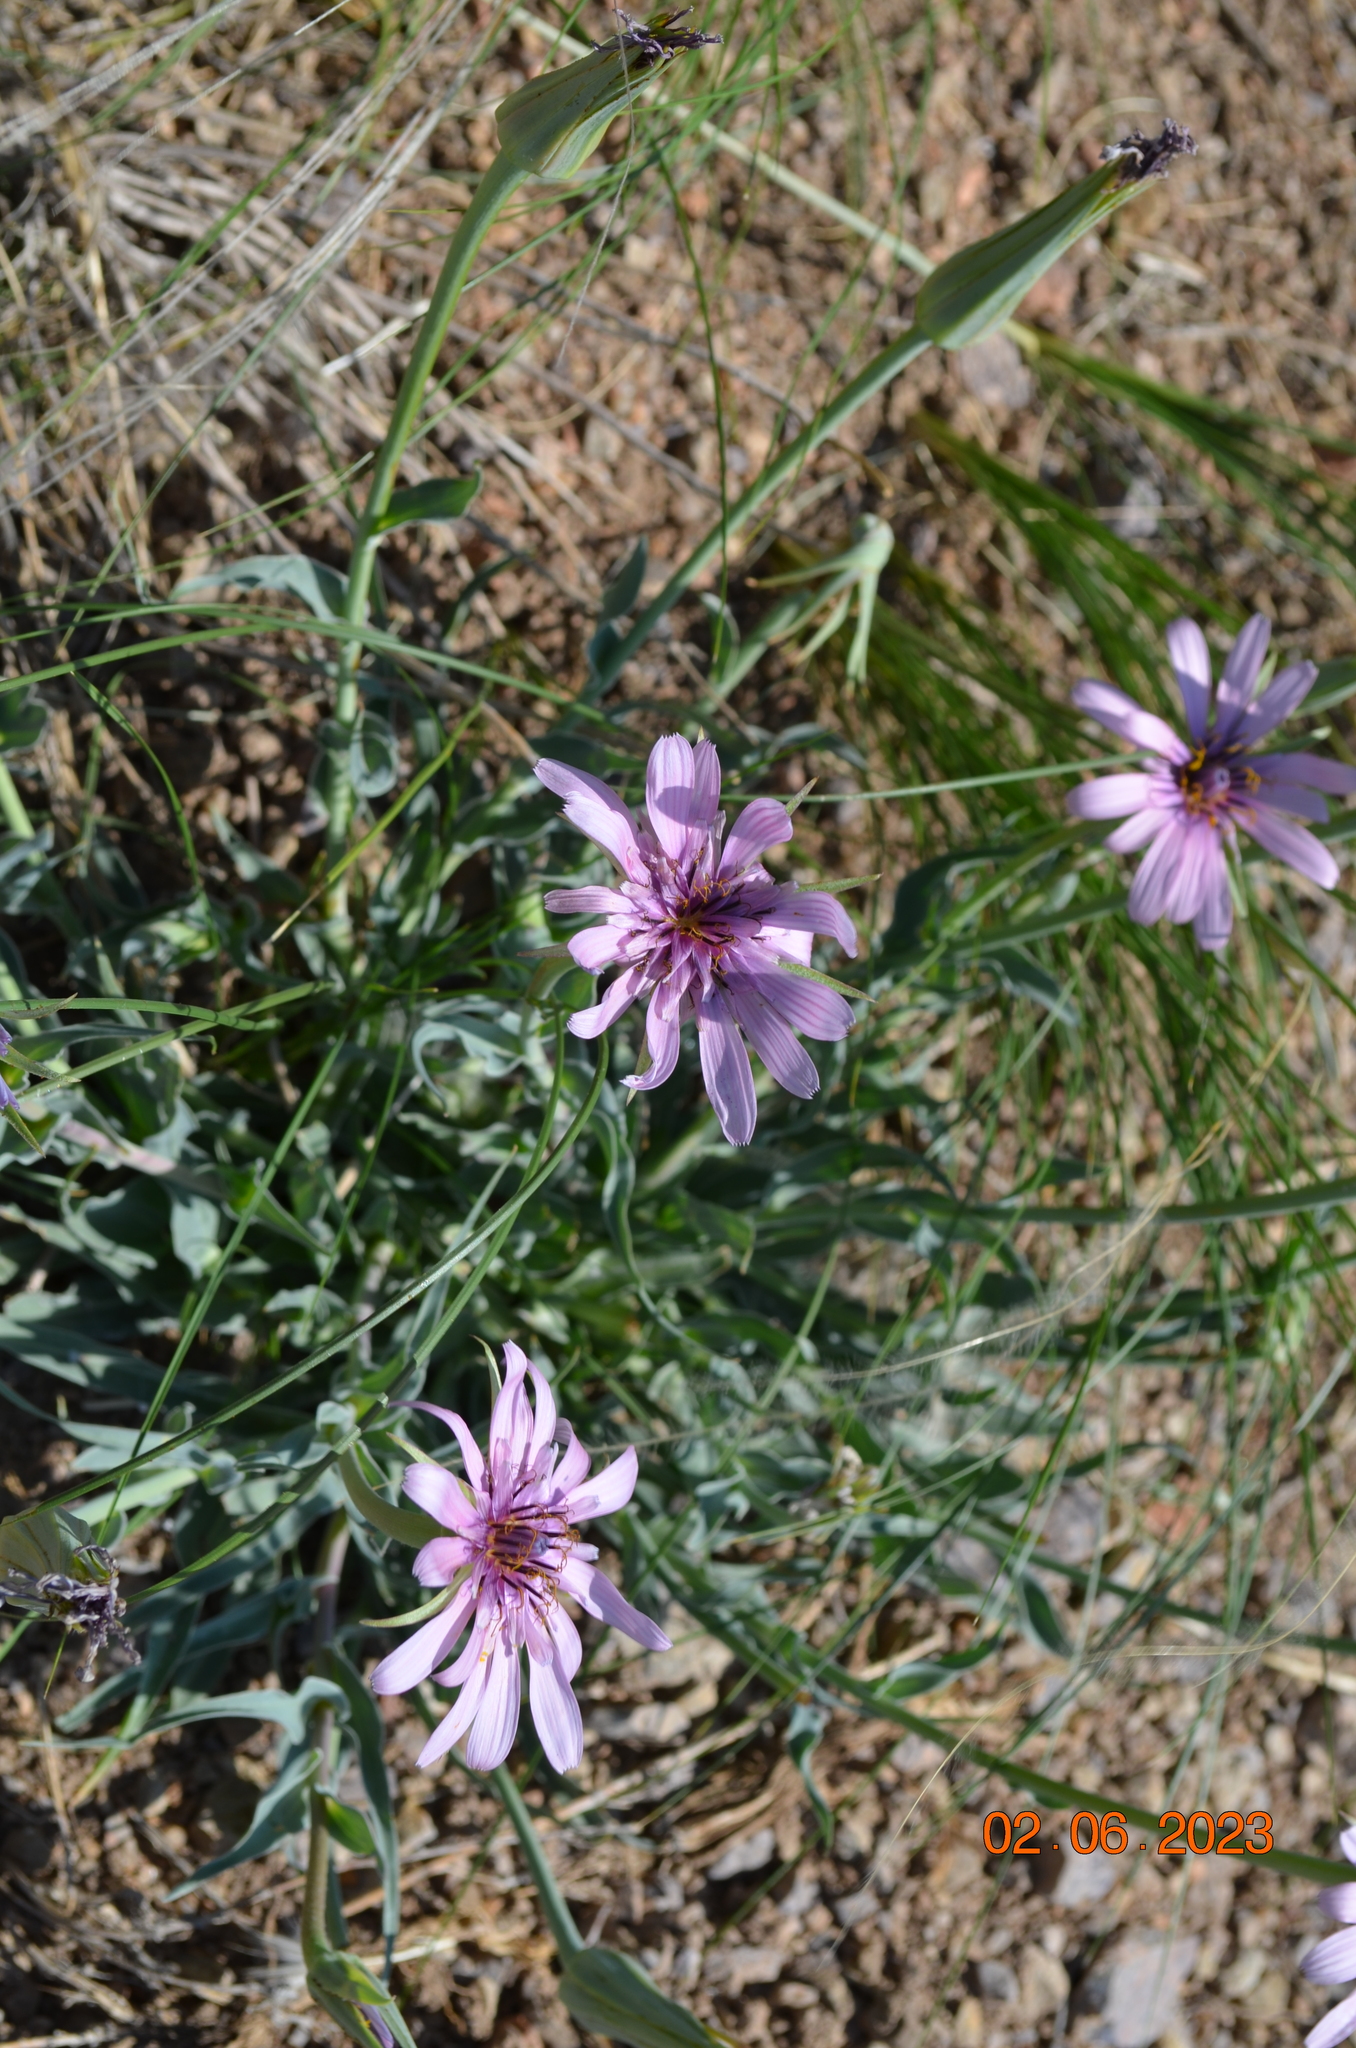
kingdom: Plantae
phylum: Tracheophyta
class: Magnoliopsida
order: Asterales
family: Asteraceae
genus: Tragopogon
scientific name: Tragopogon ruber
